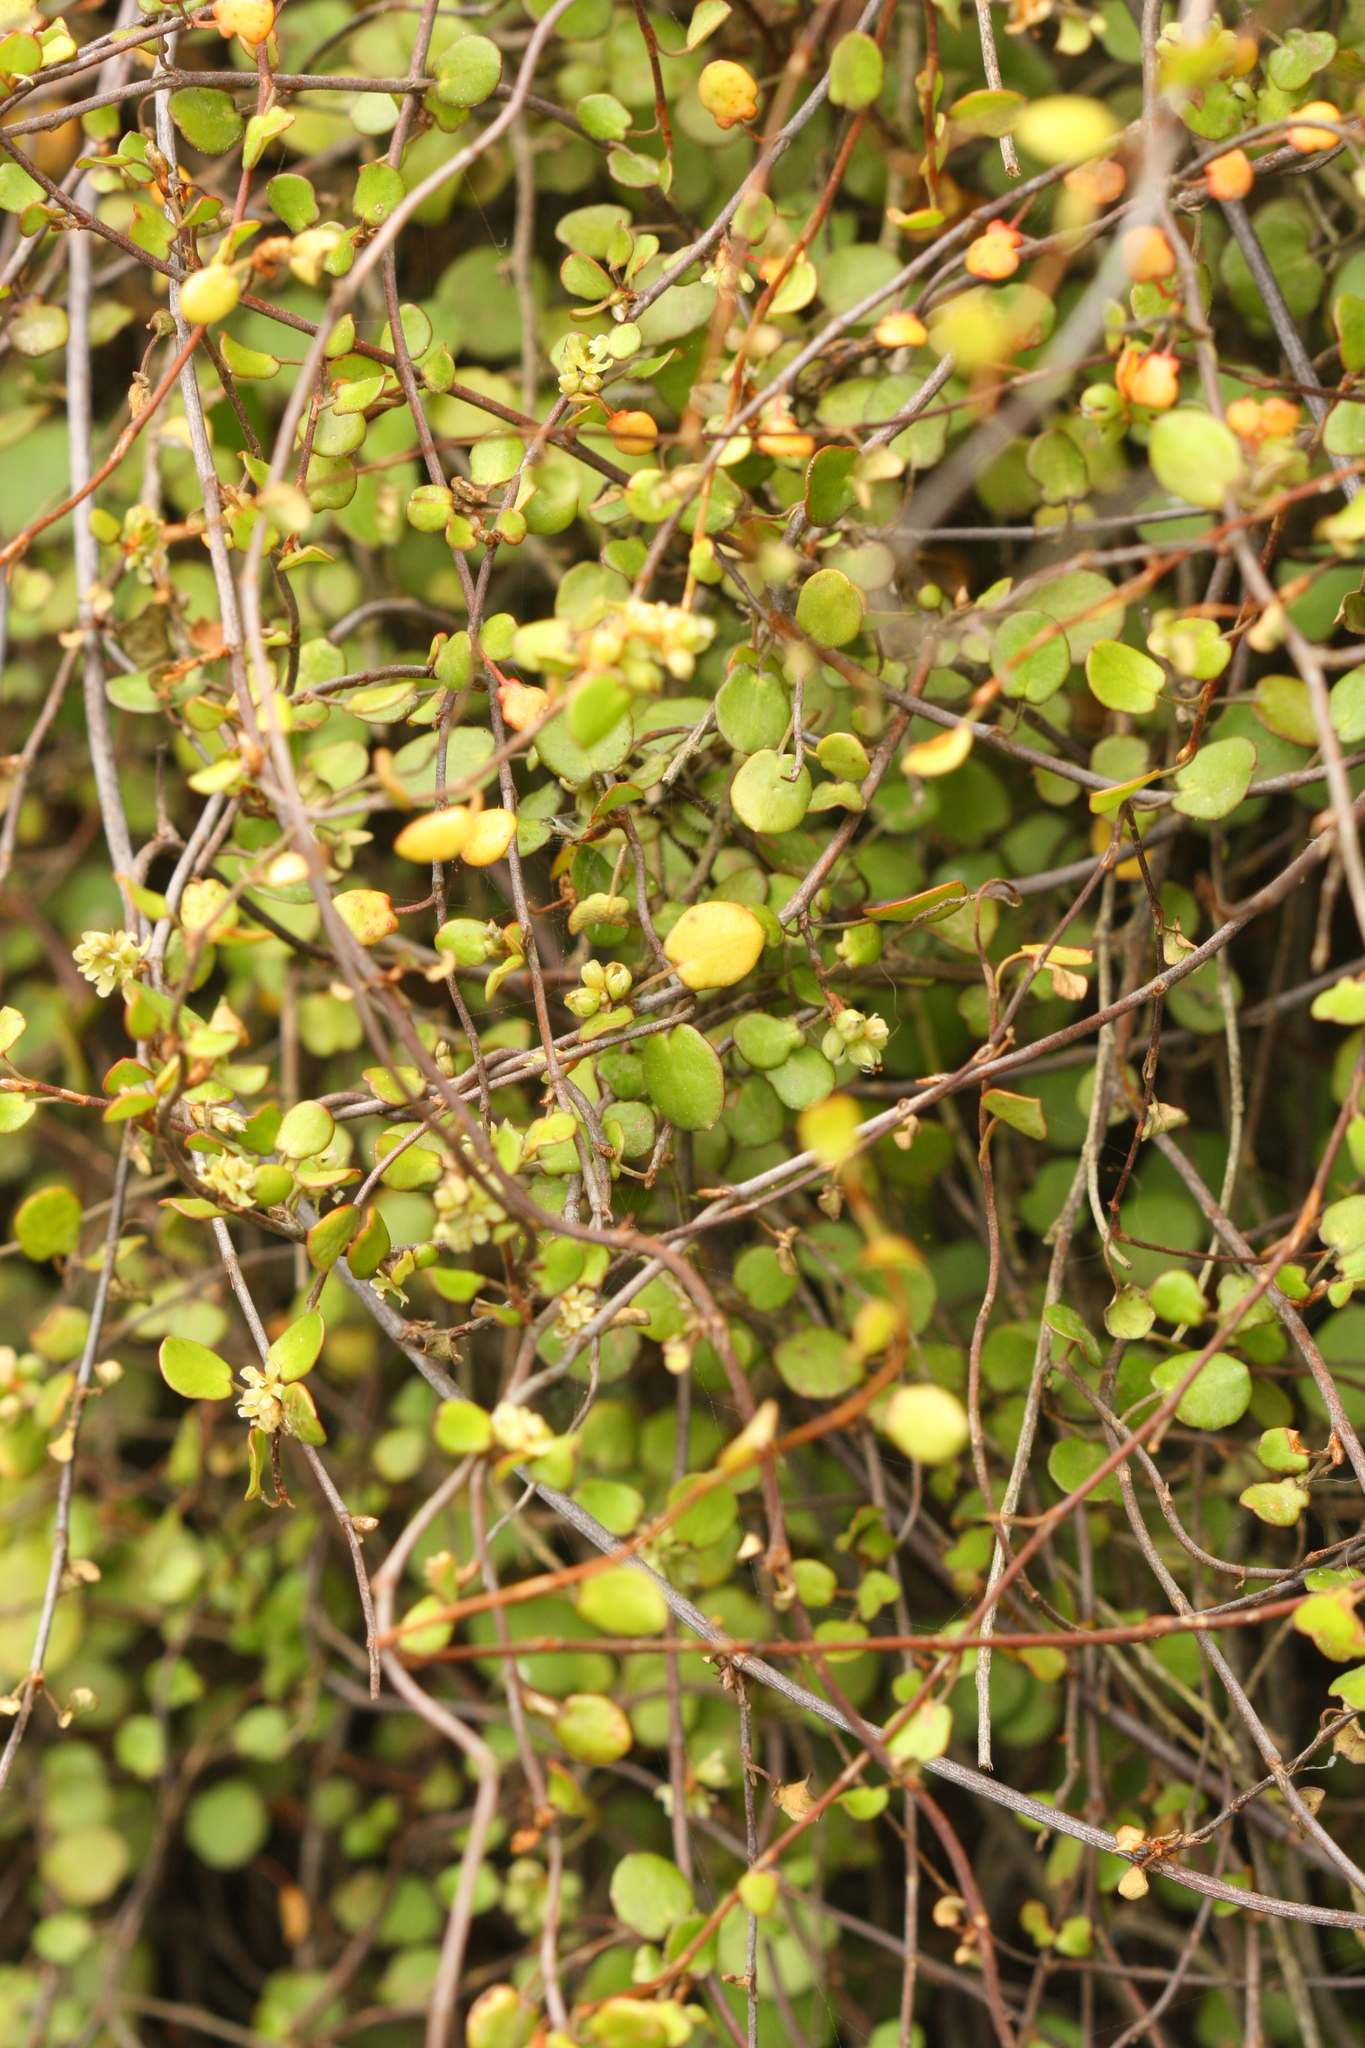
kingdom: Plantae
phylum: Tracheophyta
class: Magnoliopsida
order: Caryophyllales
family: Polygonaceae
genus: Muehlenbeckia
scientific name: Muehlenbeckia complexa
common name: Wireplant
